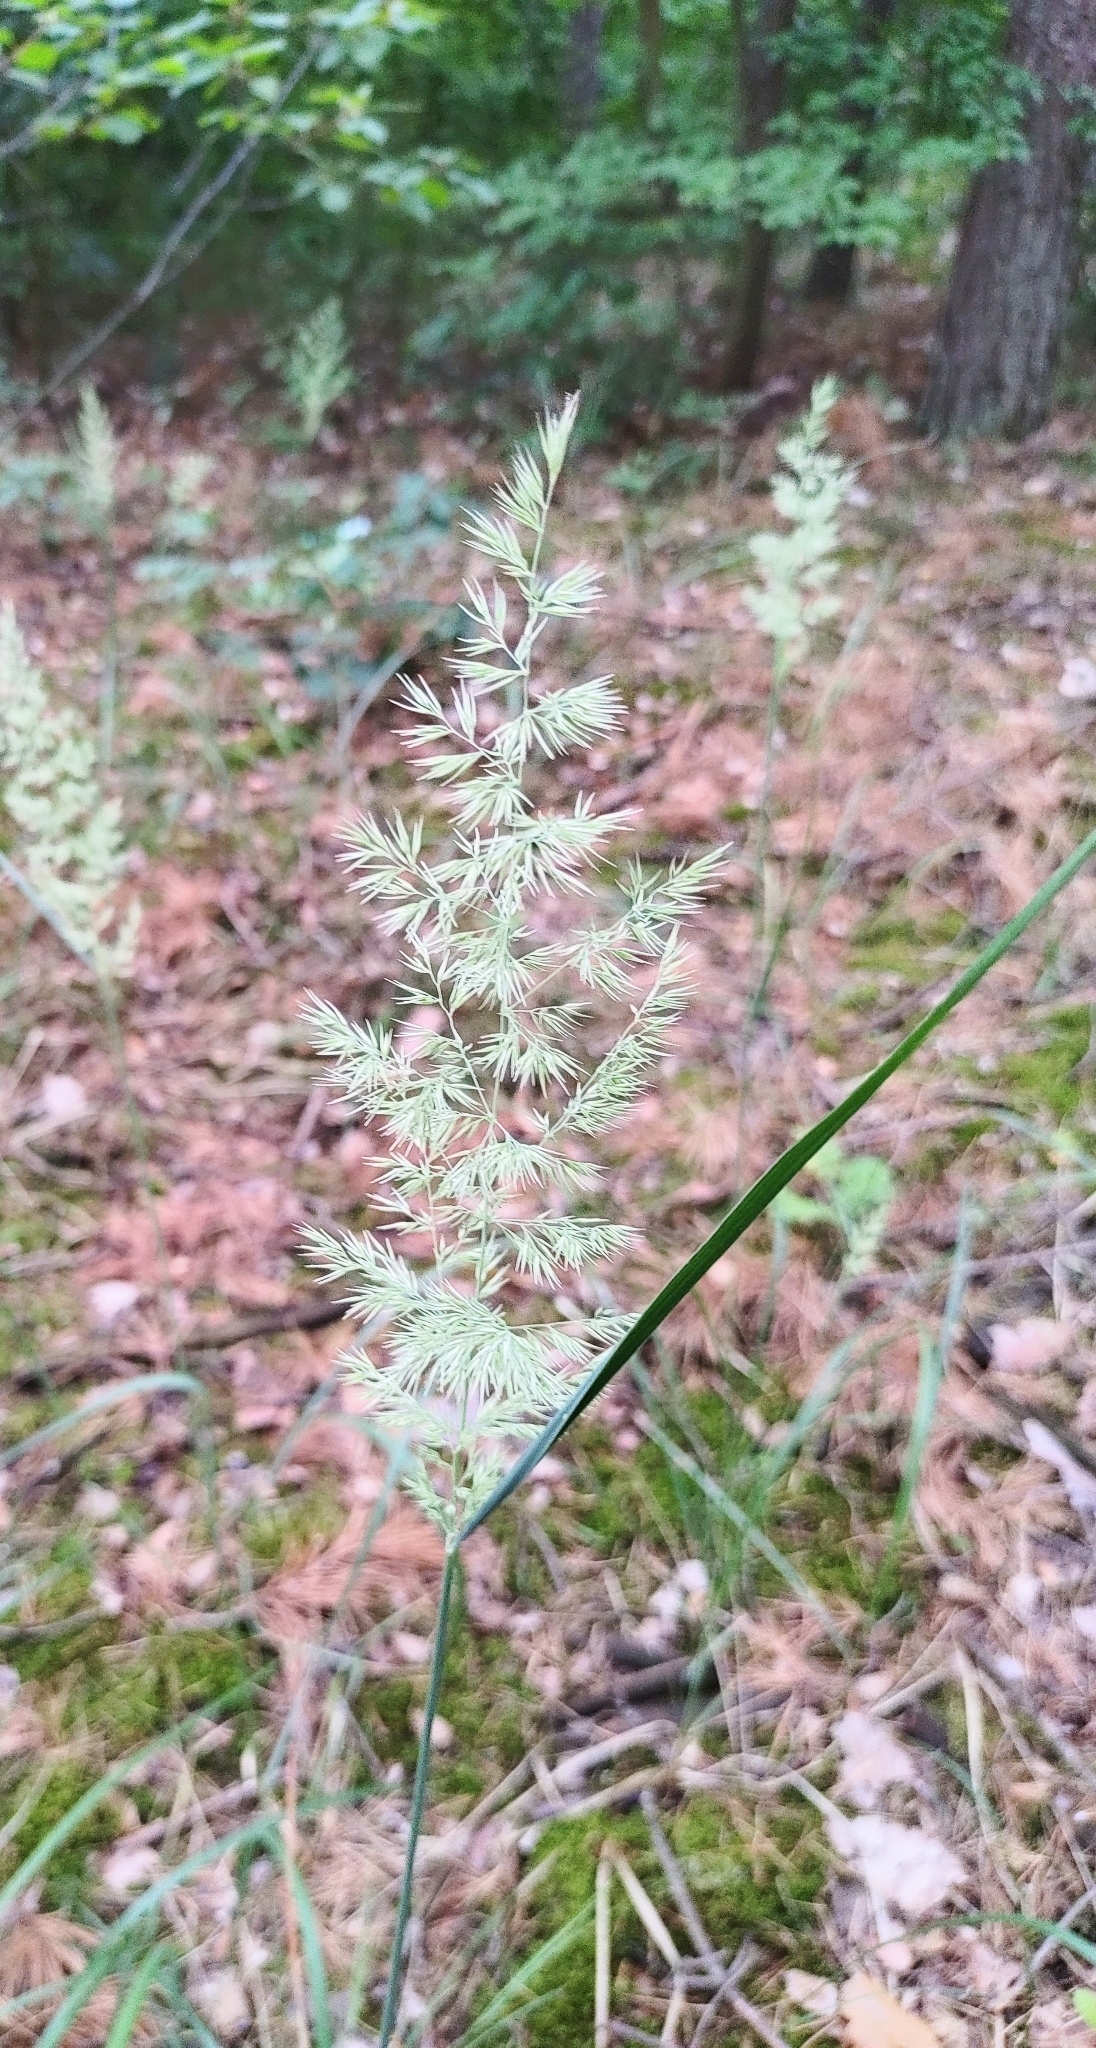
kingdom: Plantae
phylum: Tracheophyta
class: Liliopsida
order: Poales
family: Poaceae
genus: Calamagrostis
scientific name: Calamagrostis epigejos
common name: Wood small-reed
